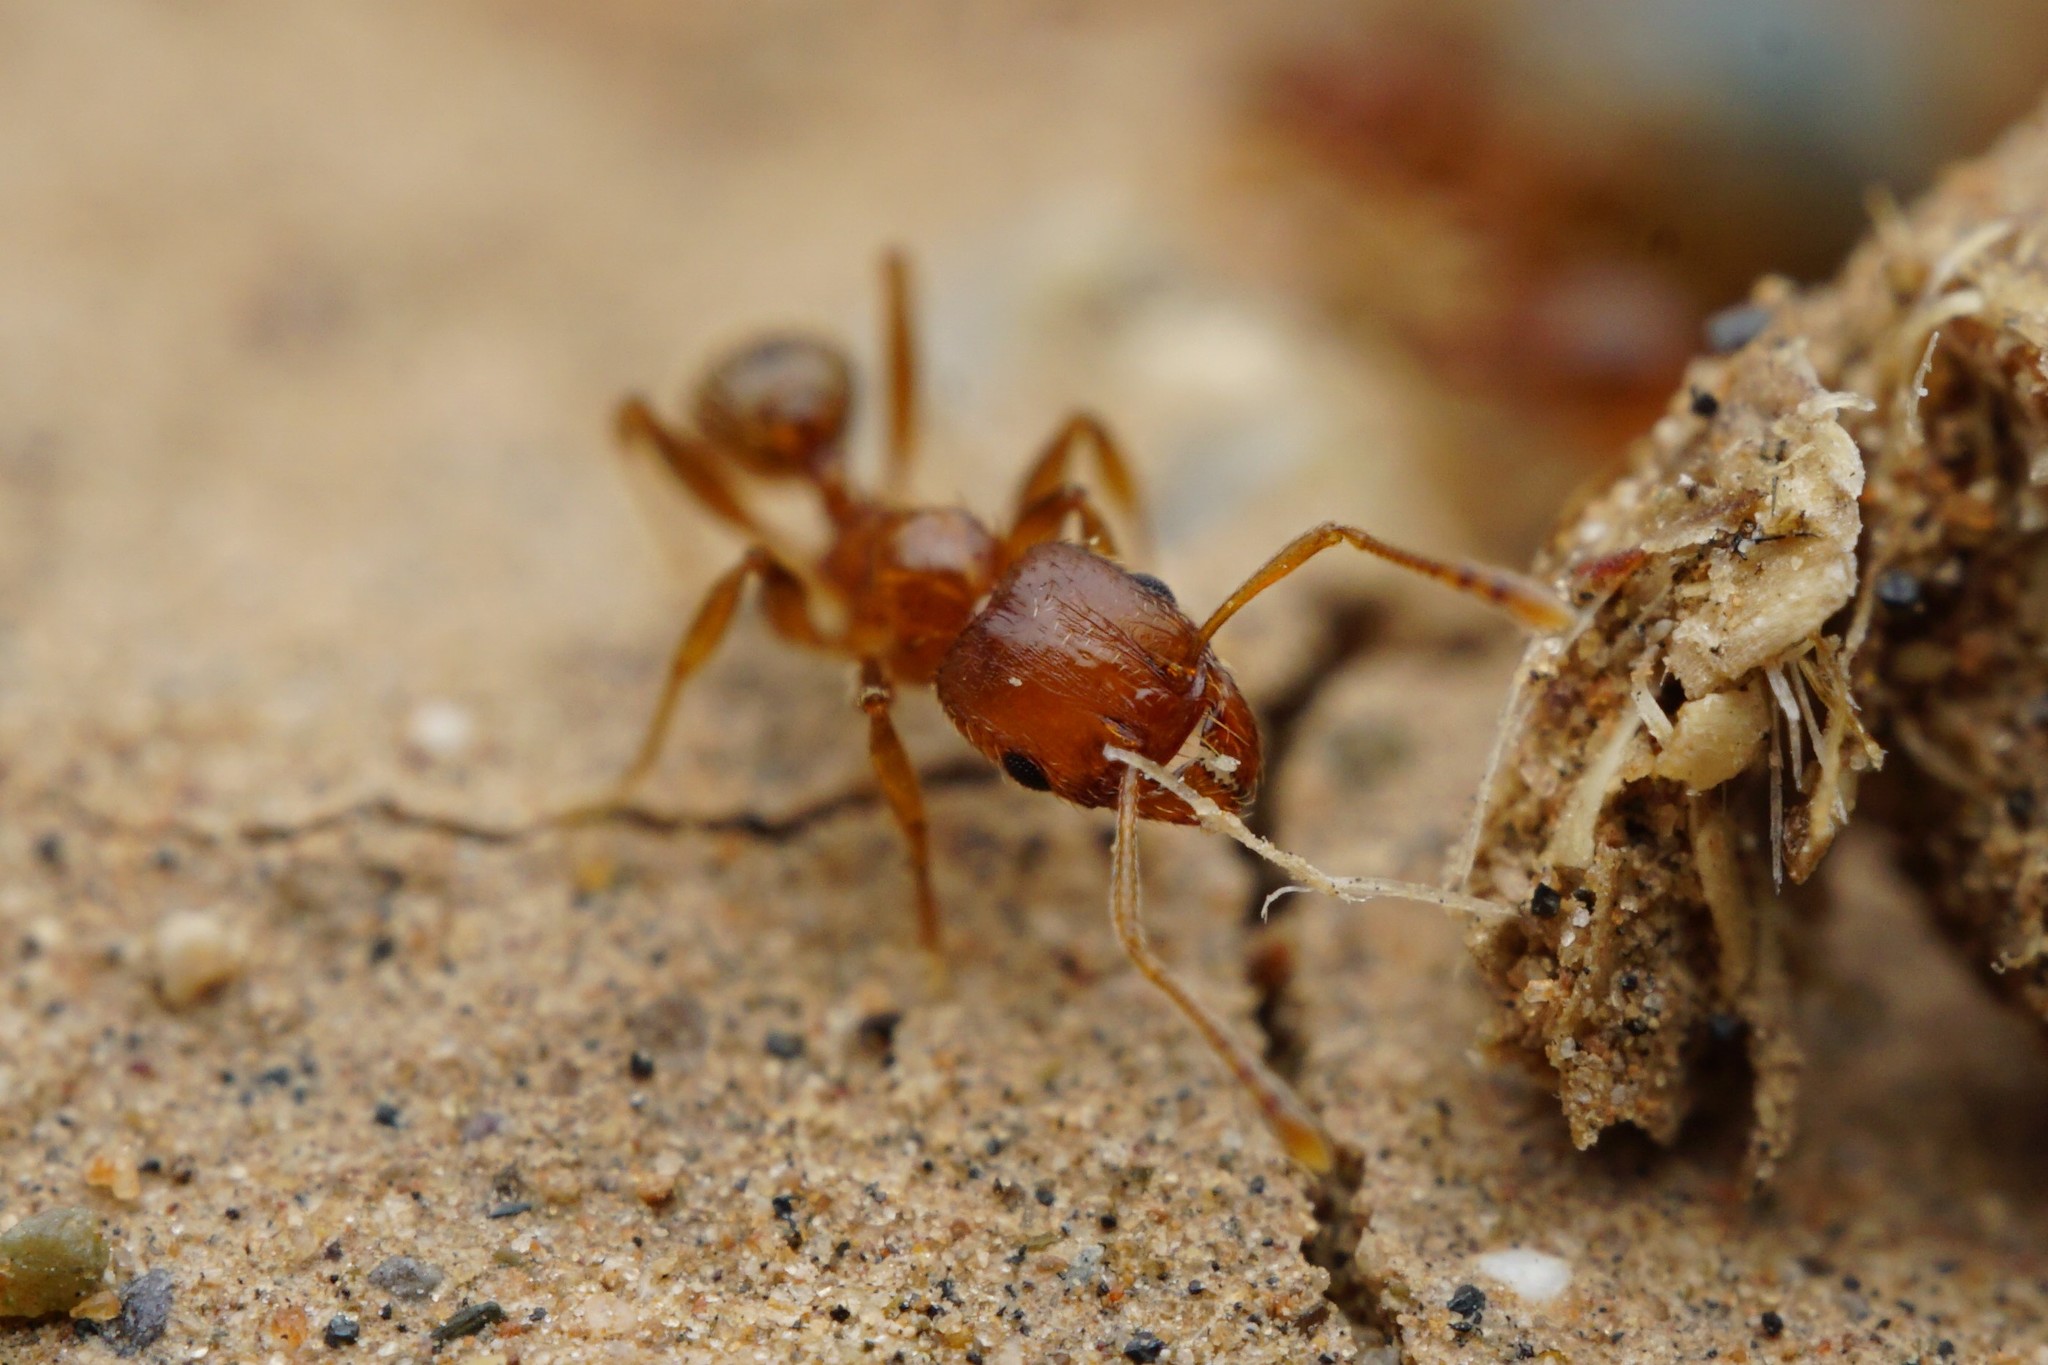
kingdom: Animalia
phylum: Arthropoda
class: Insecta
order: Hymenoptera
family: Formicidae
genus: Pheidole
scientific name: Pheidole spadonia
